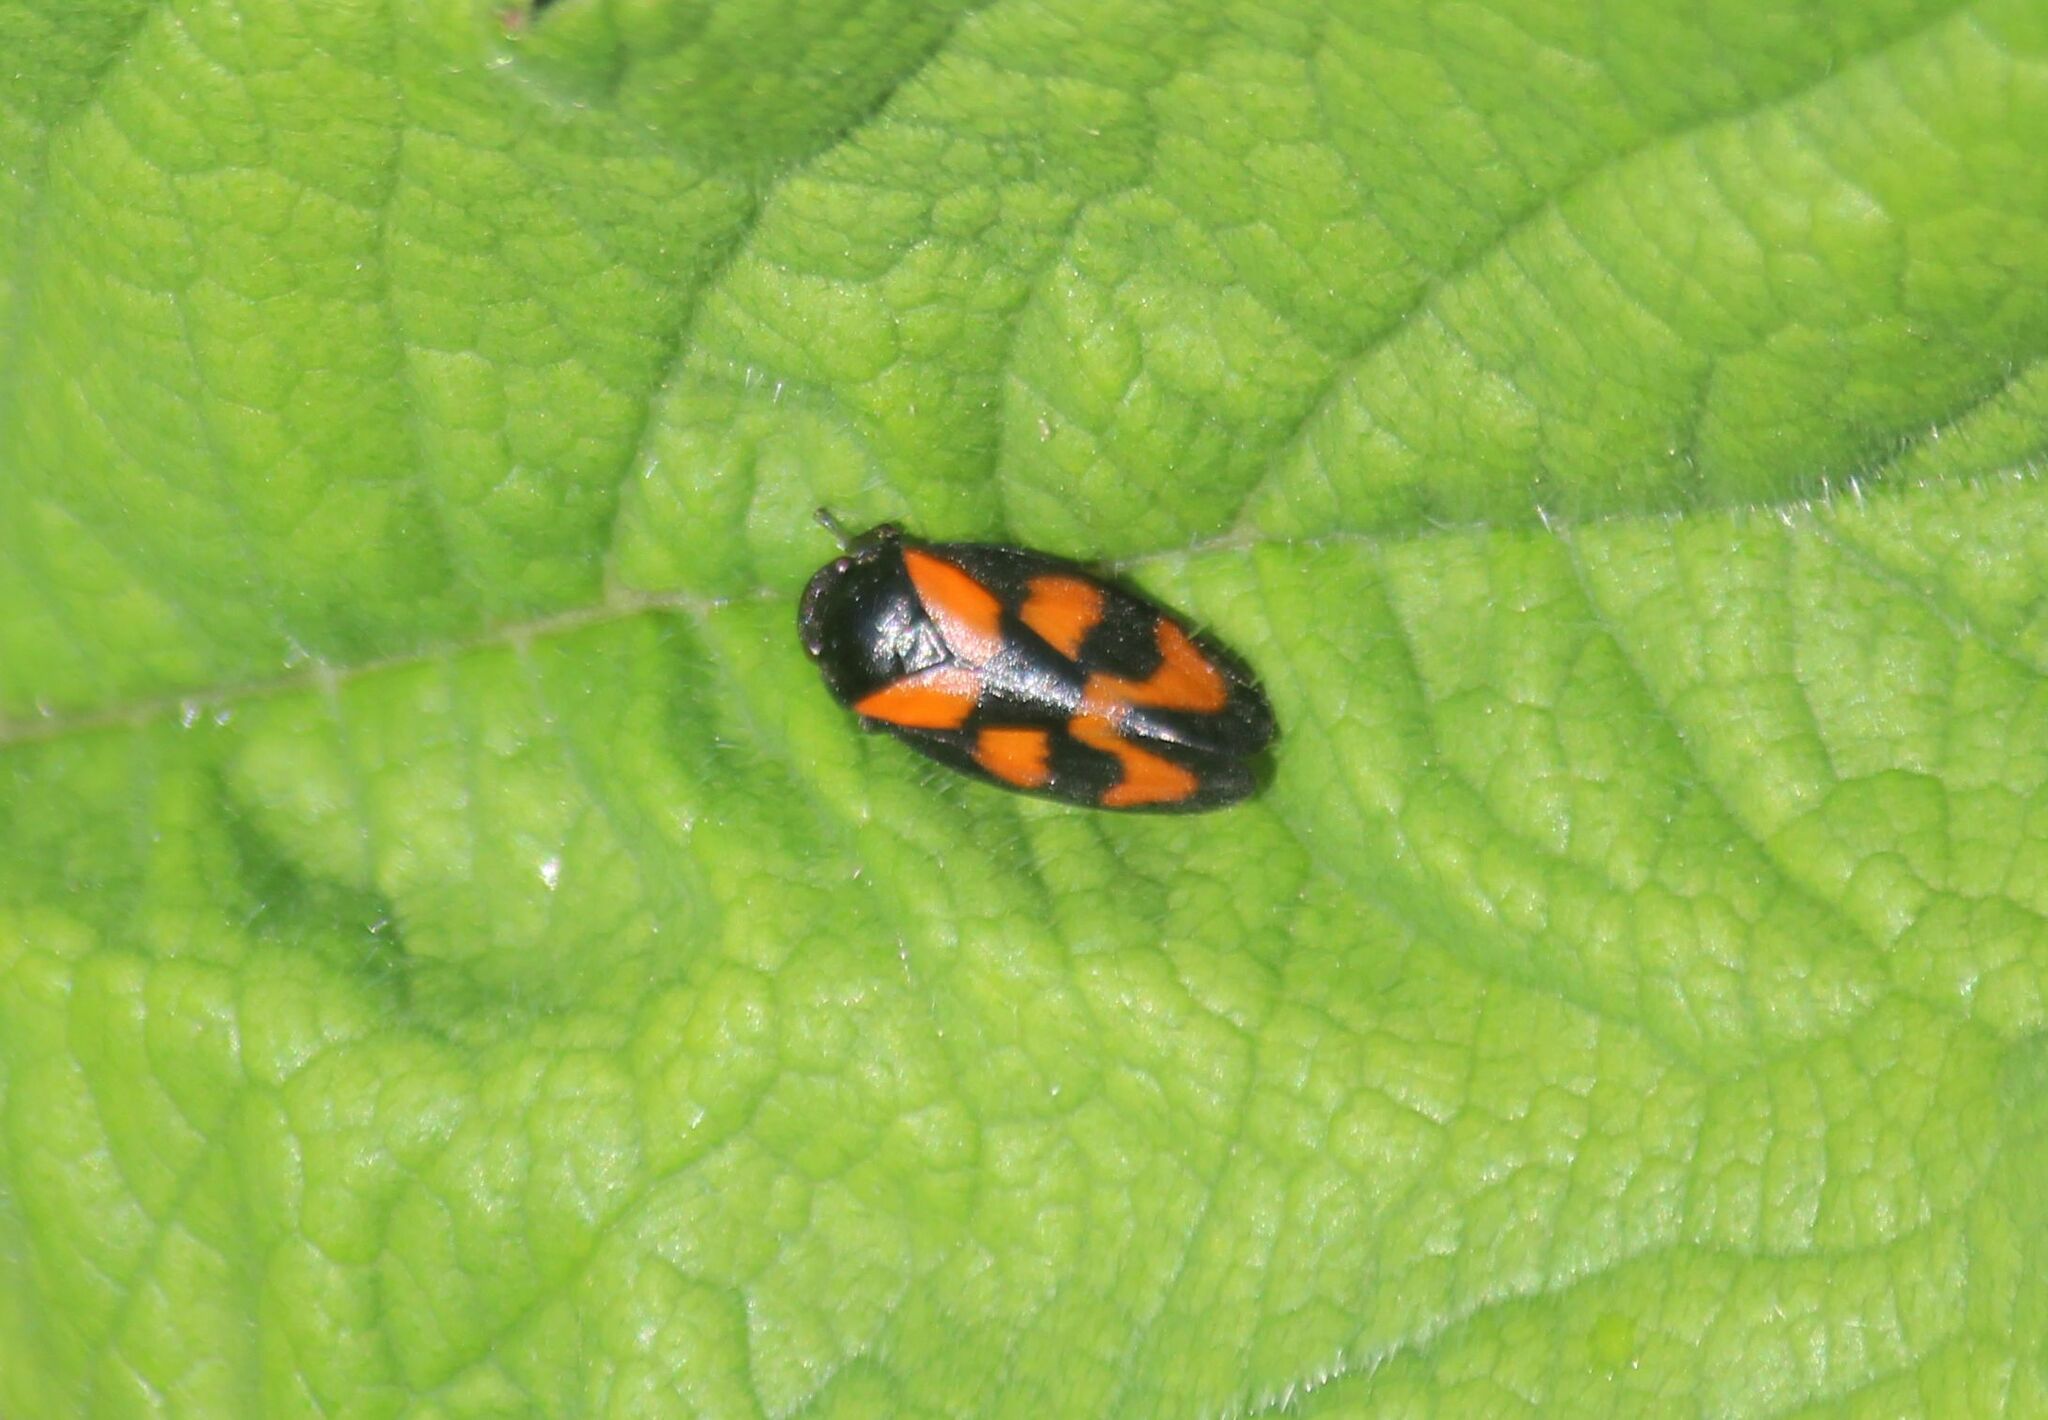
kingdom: Animalia
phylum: Arthropoda
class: Insecta
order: Hemiptera
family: Cercopidae
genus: Cercopis
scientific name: Cercopis vulnerata
